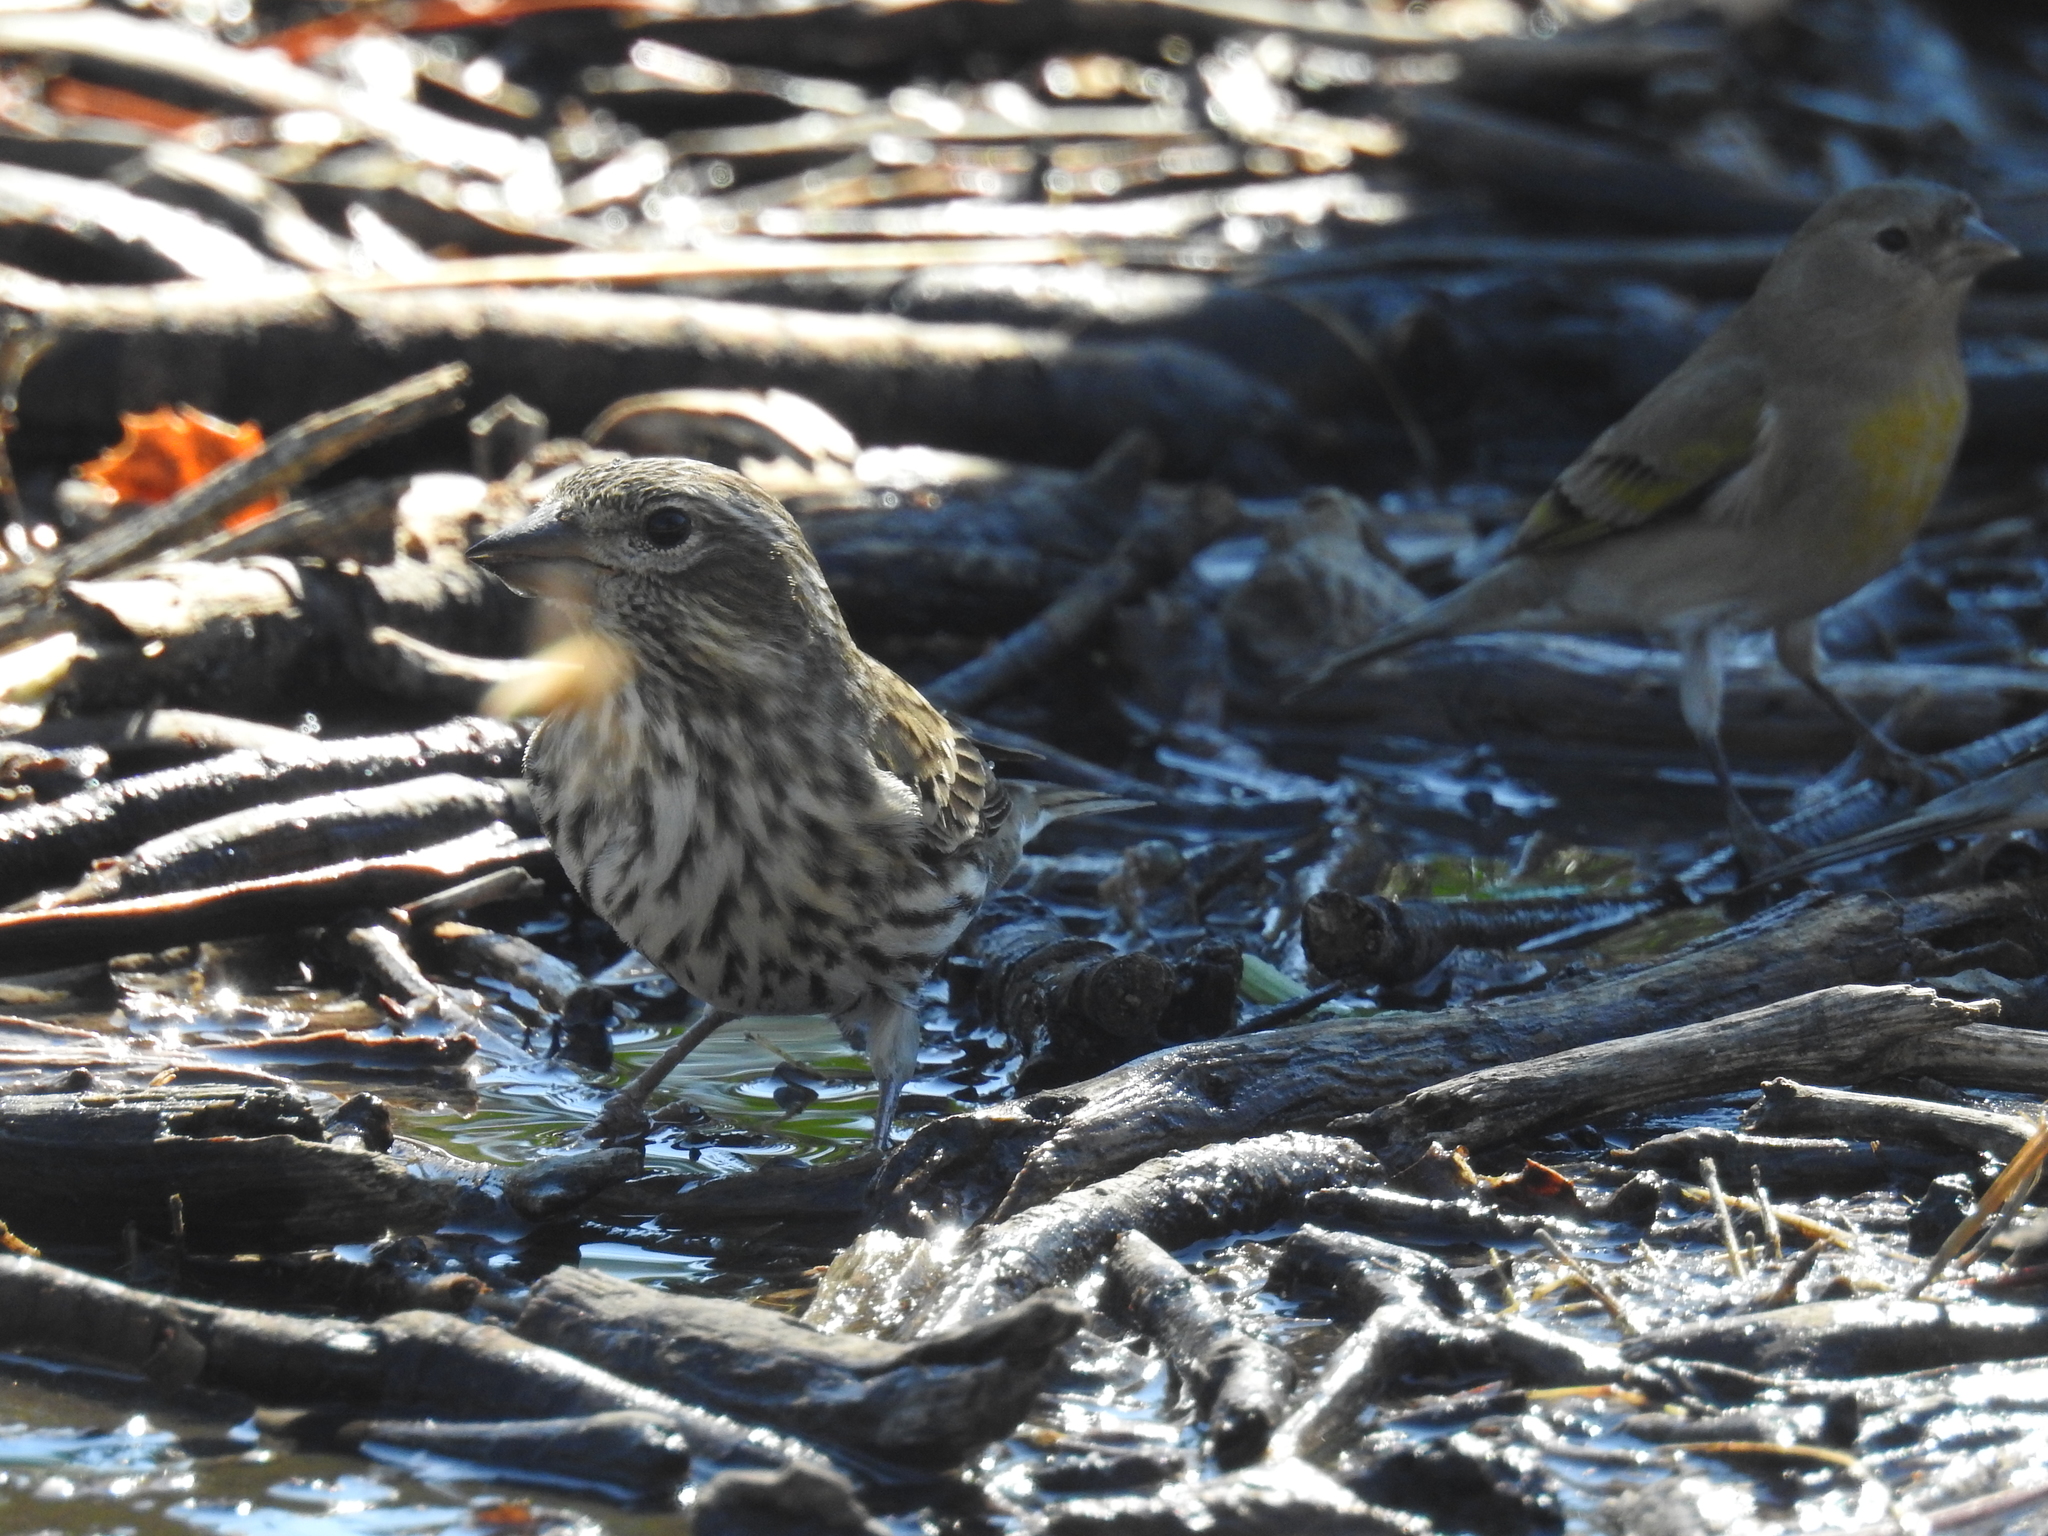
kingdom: Animalia
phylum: Chordata
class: Aves
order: Passeriformes
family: Fringillidae
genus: Haemorhous
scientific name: Haemorhous cassinii
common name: Cassin's finch
